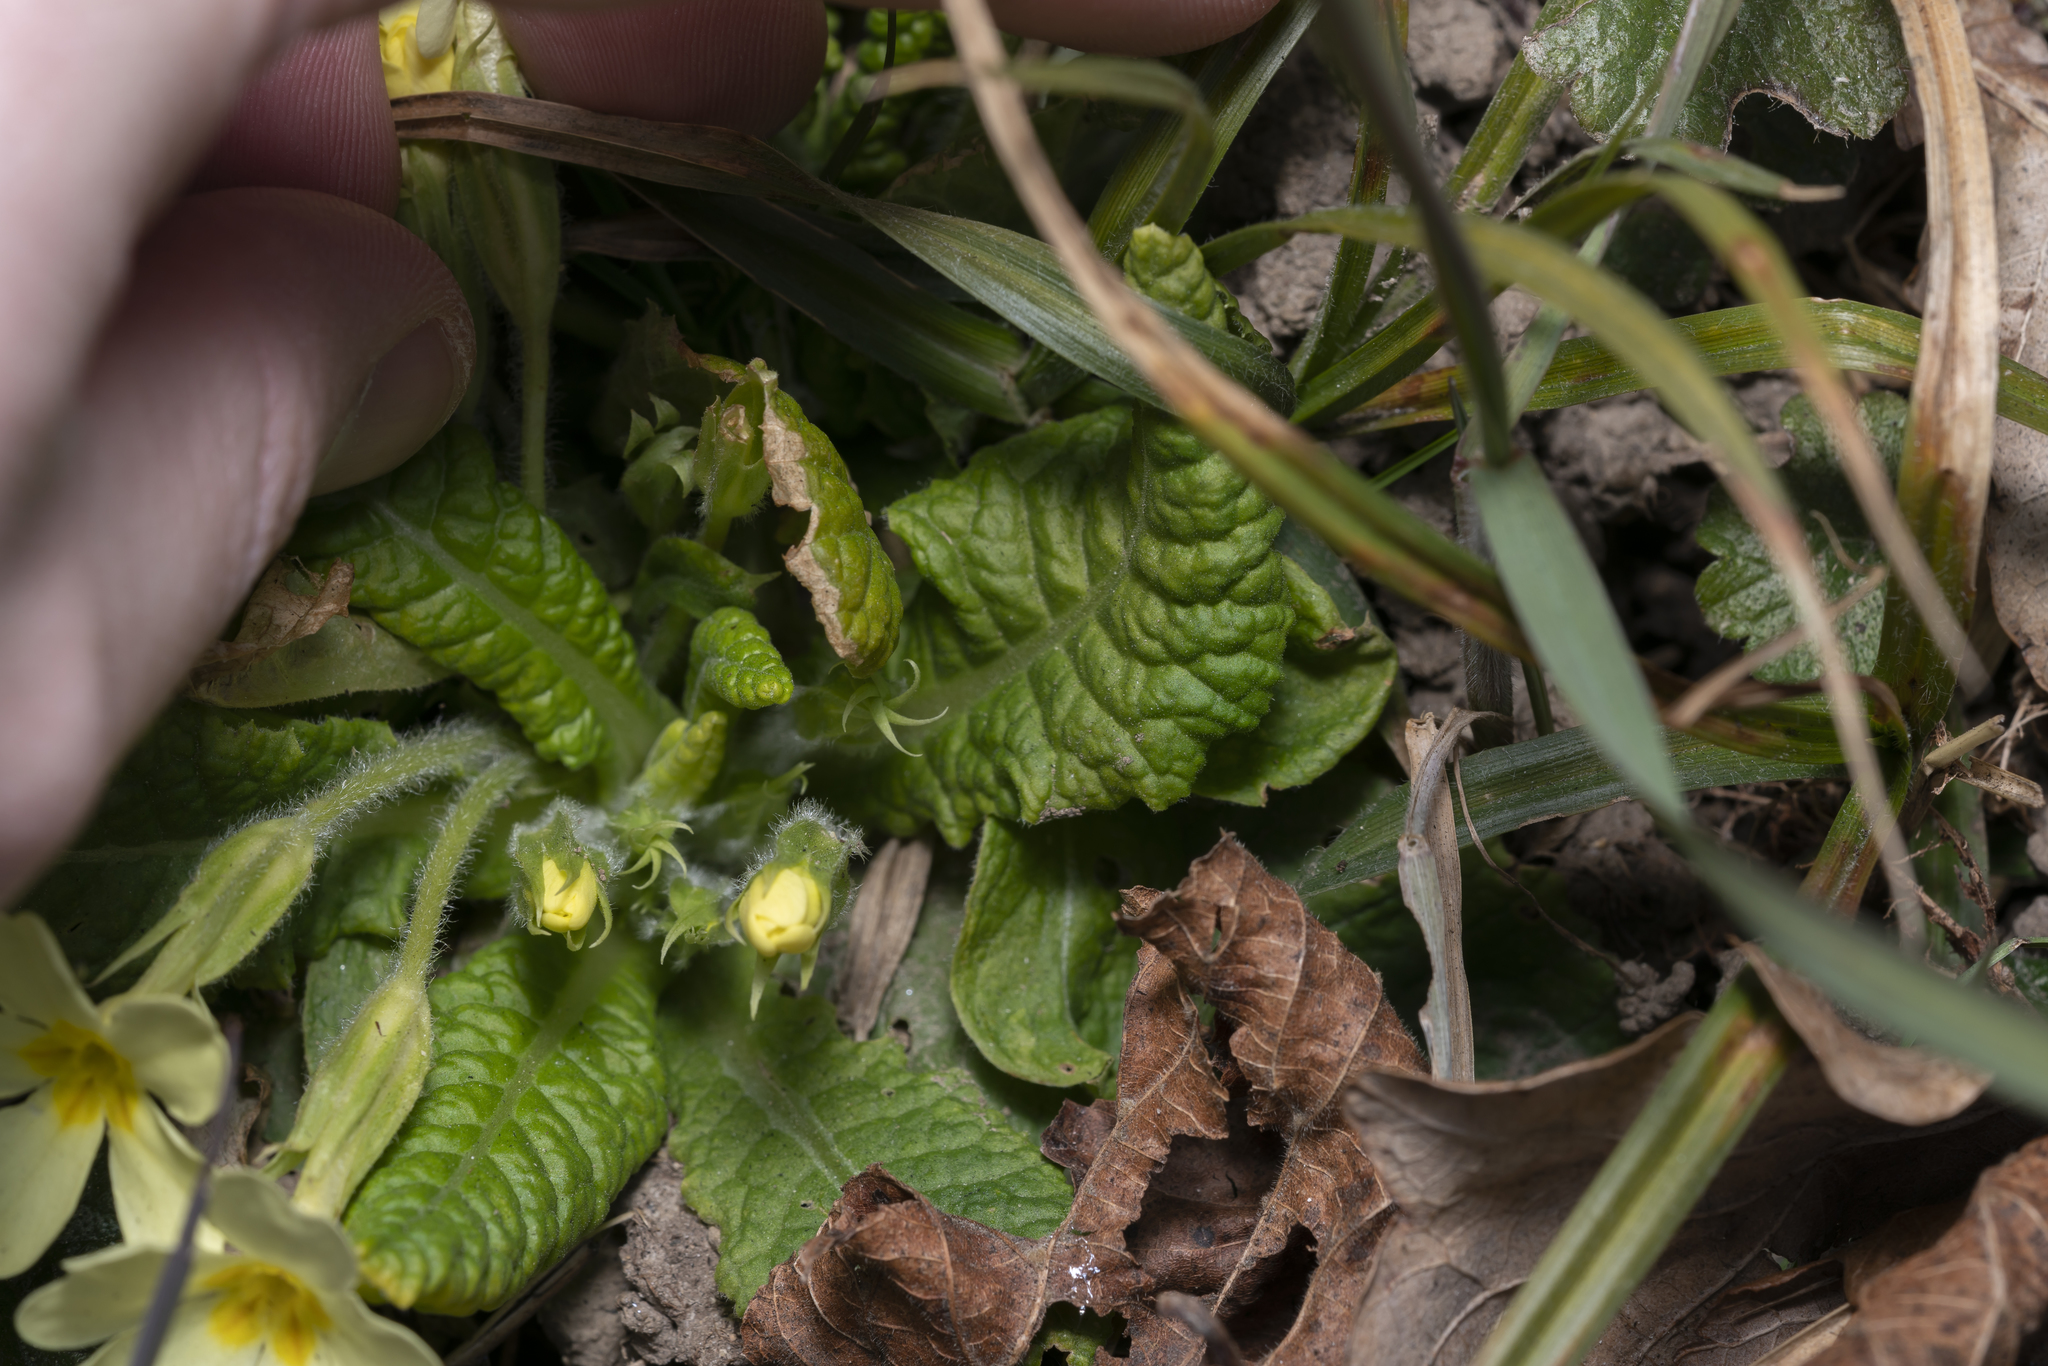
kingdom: Plantae
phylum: Tracheophyta
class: Magnoliopsida
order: Ericales
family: Primulaceae
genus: Primula
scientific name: Primula vulgaris
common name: Primrose
